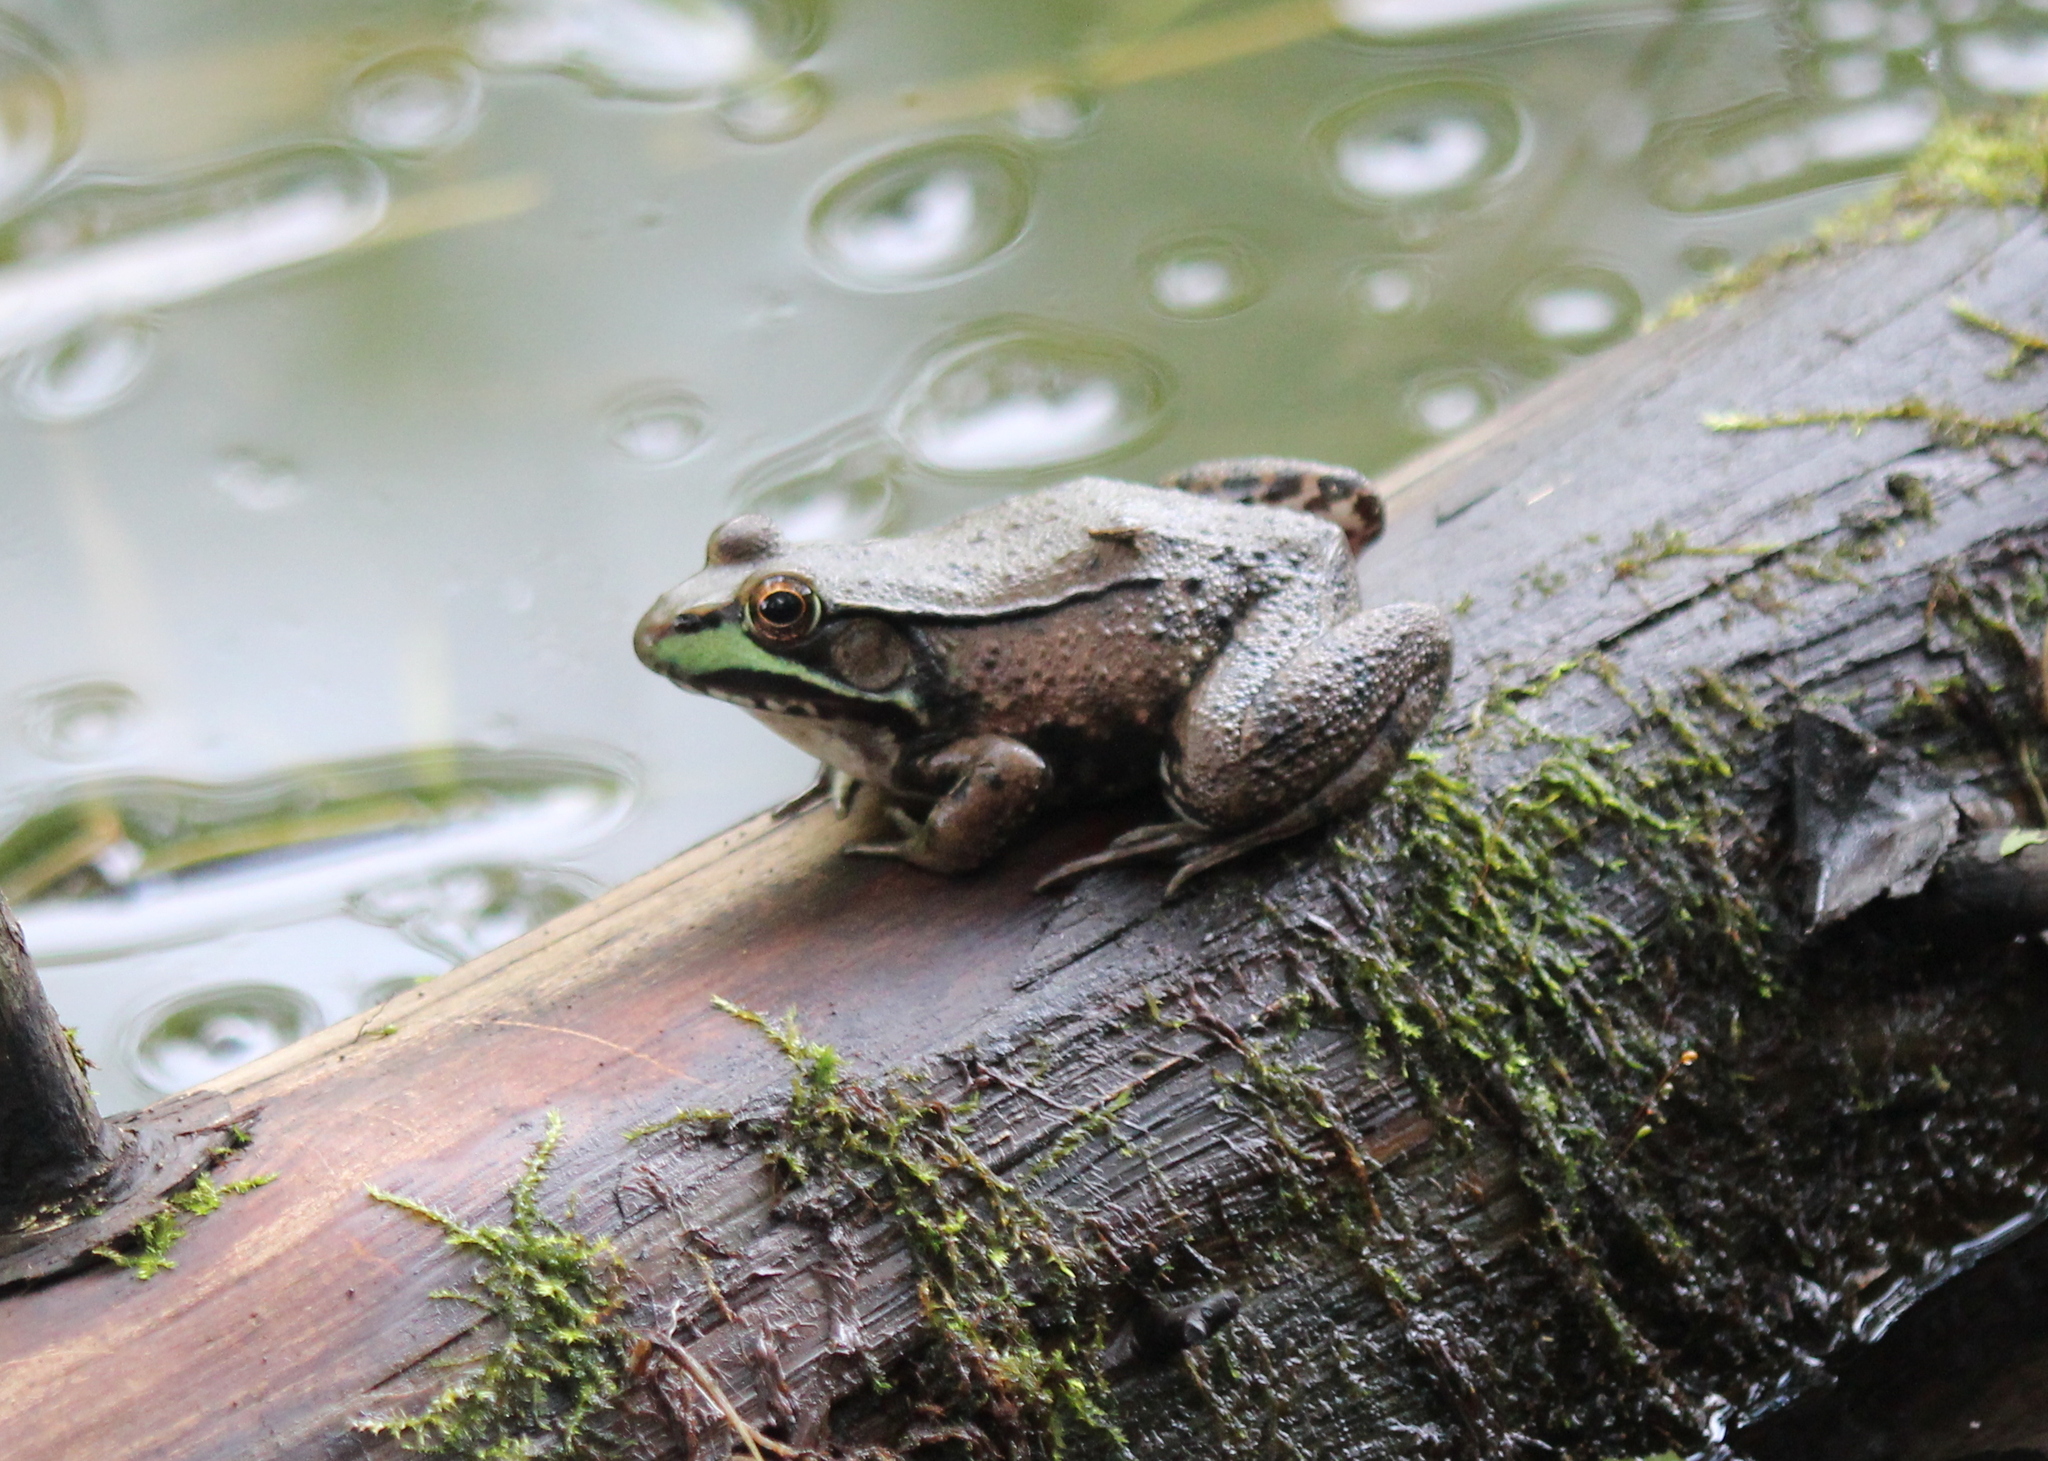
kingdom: Animalia
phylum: Chordata
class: Amphibia
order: Anura
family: Ranidae
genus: Lithobates
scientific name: Lithobates clamitans
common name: Green frog
